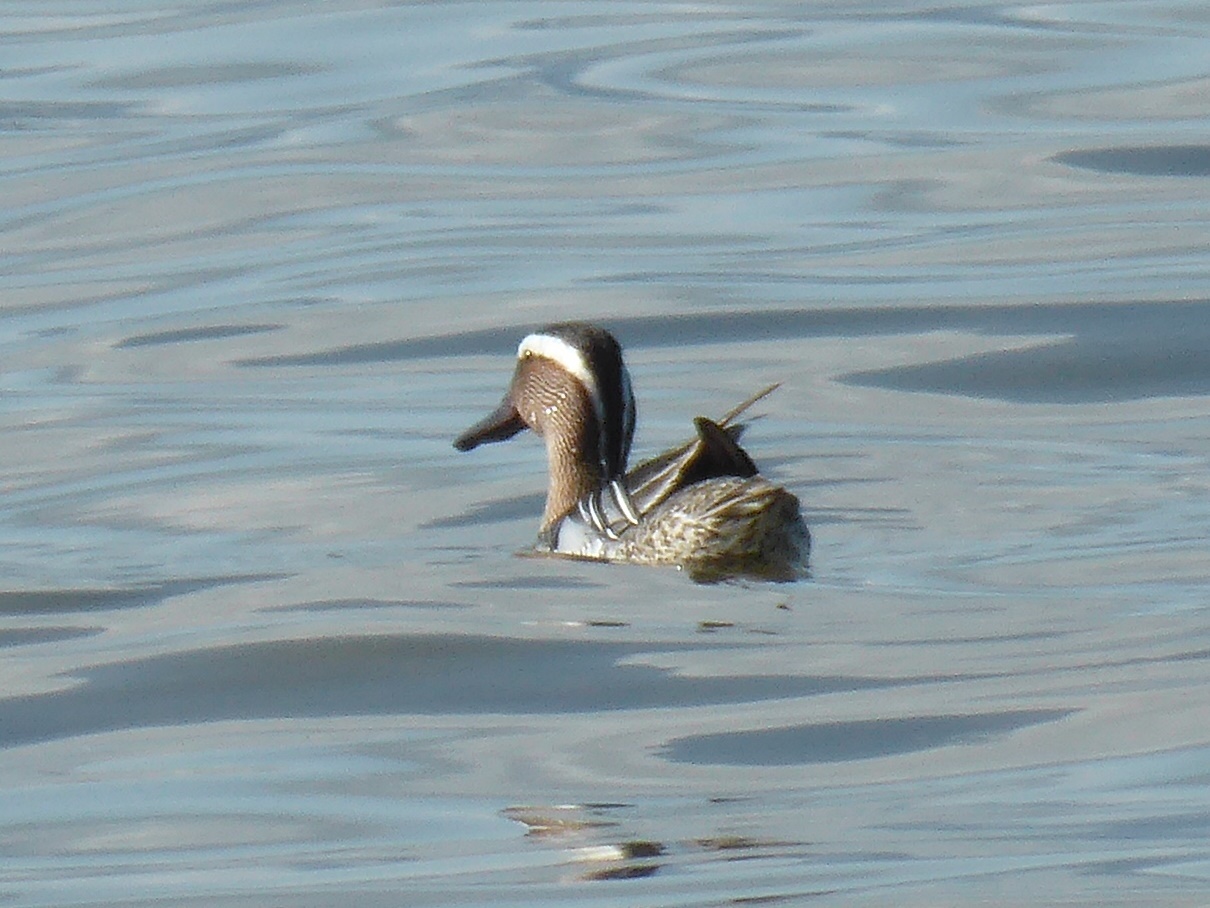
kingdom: Animalia
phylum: Chordata
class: Aves
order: Anseriformes
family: Anatidae
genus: Spatula
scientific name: Spatula querquedula
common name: Garganey
